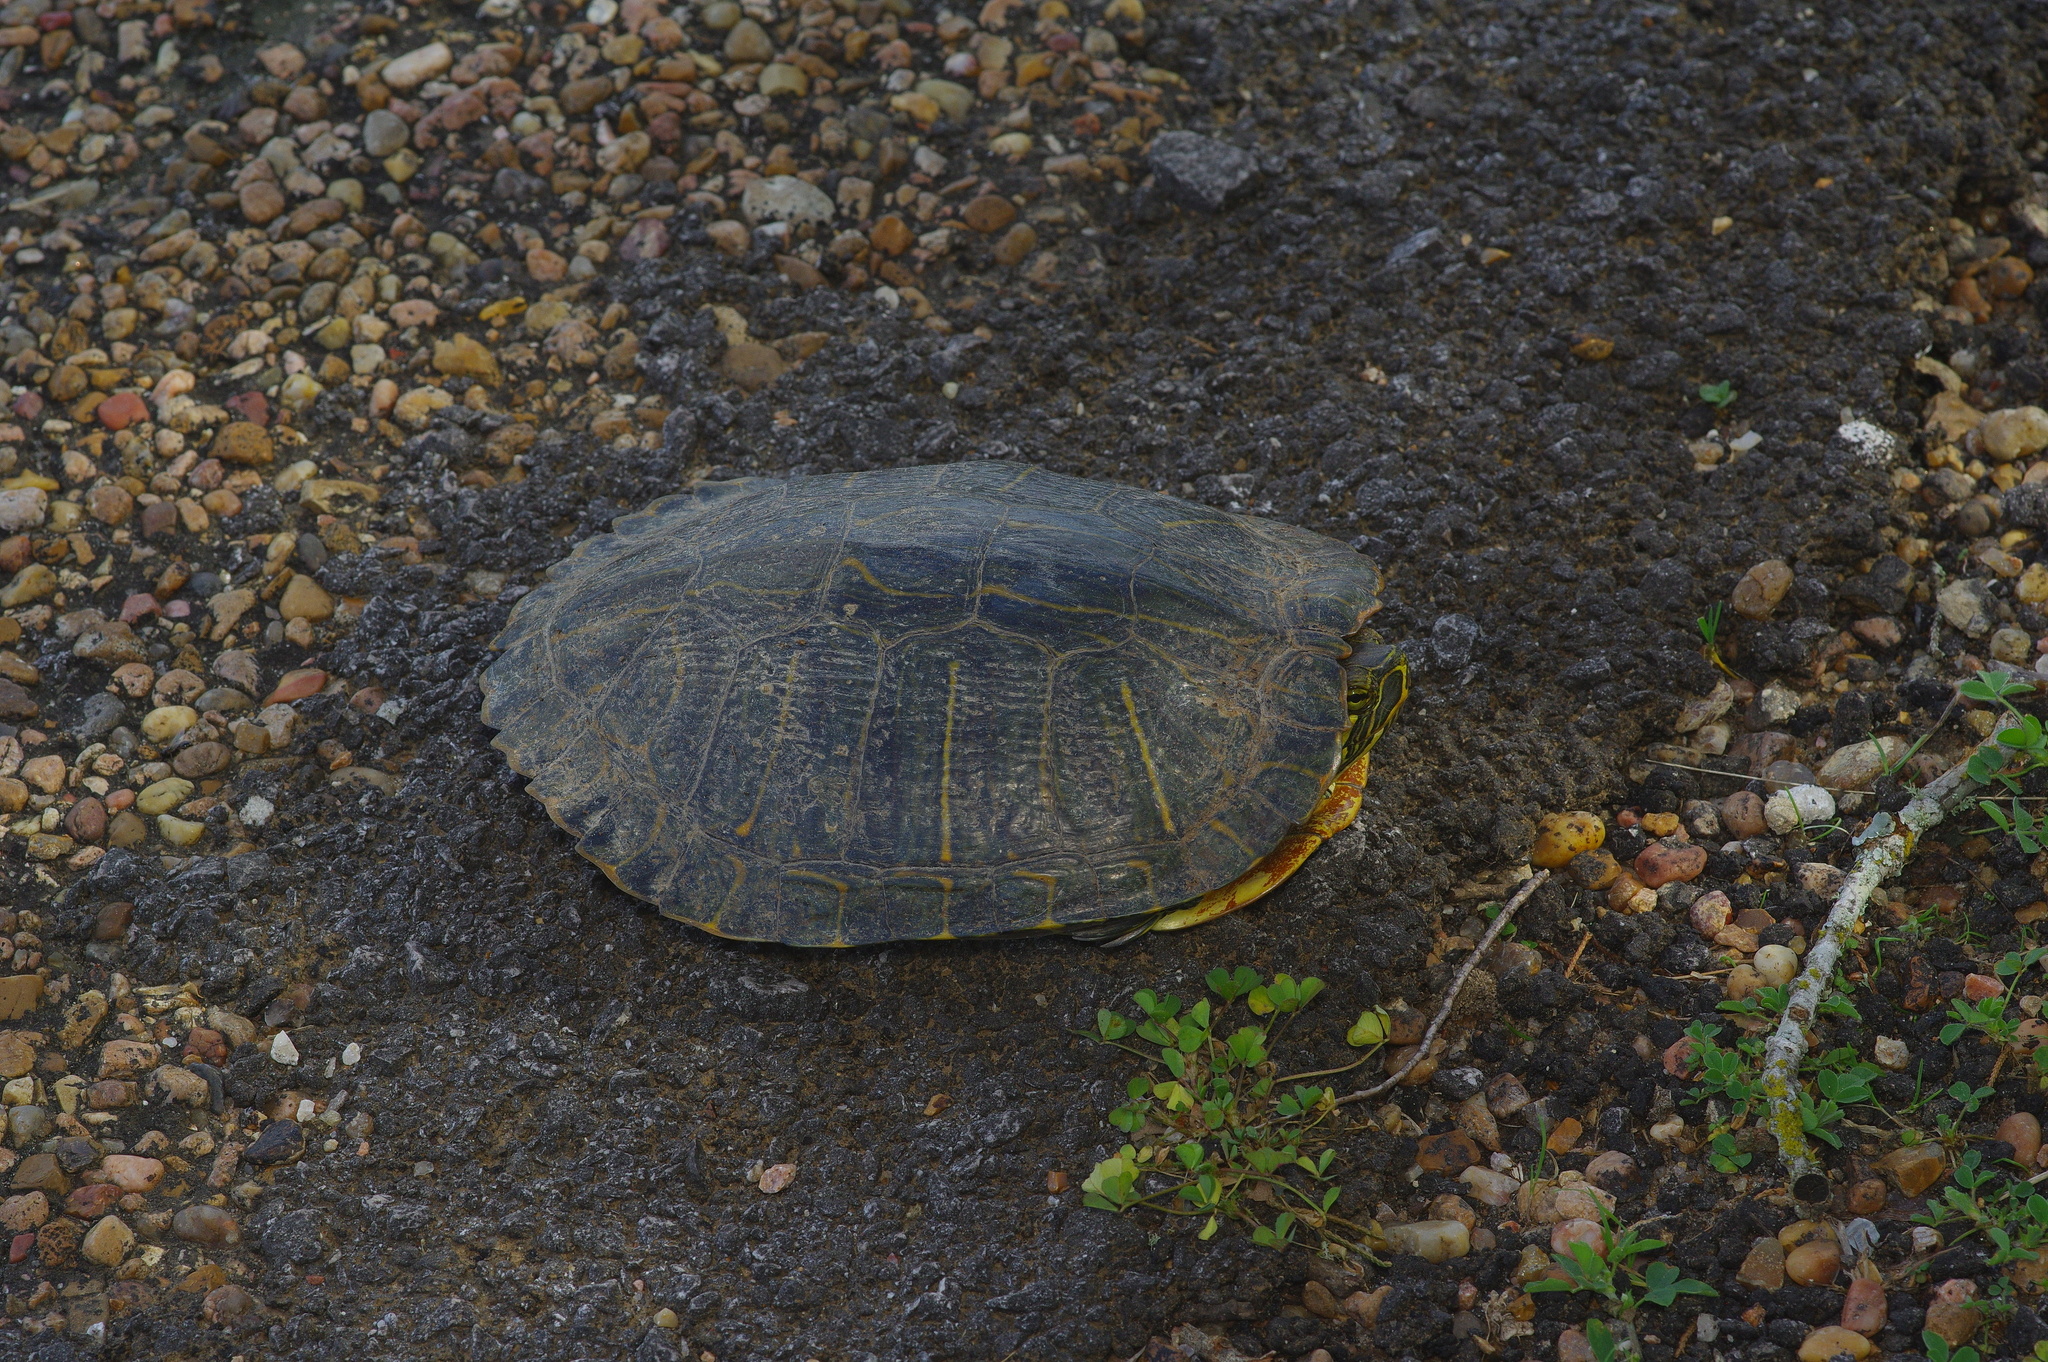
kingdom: Animalia
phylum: Chordata
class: Testudines
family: Emydidae
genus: Trachemys
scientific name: Trachemys scripta
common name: Slider
